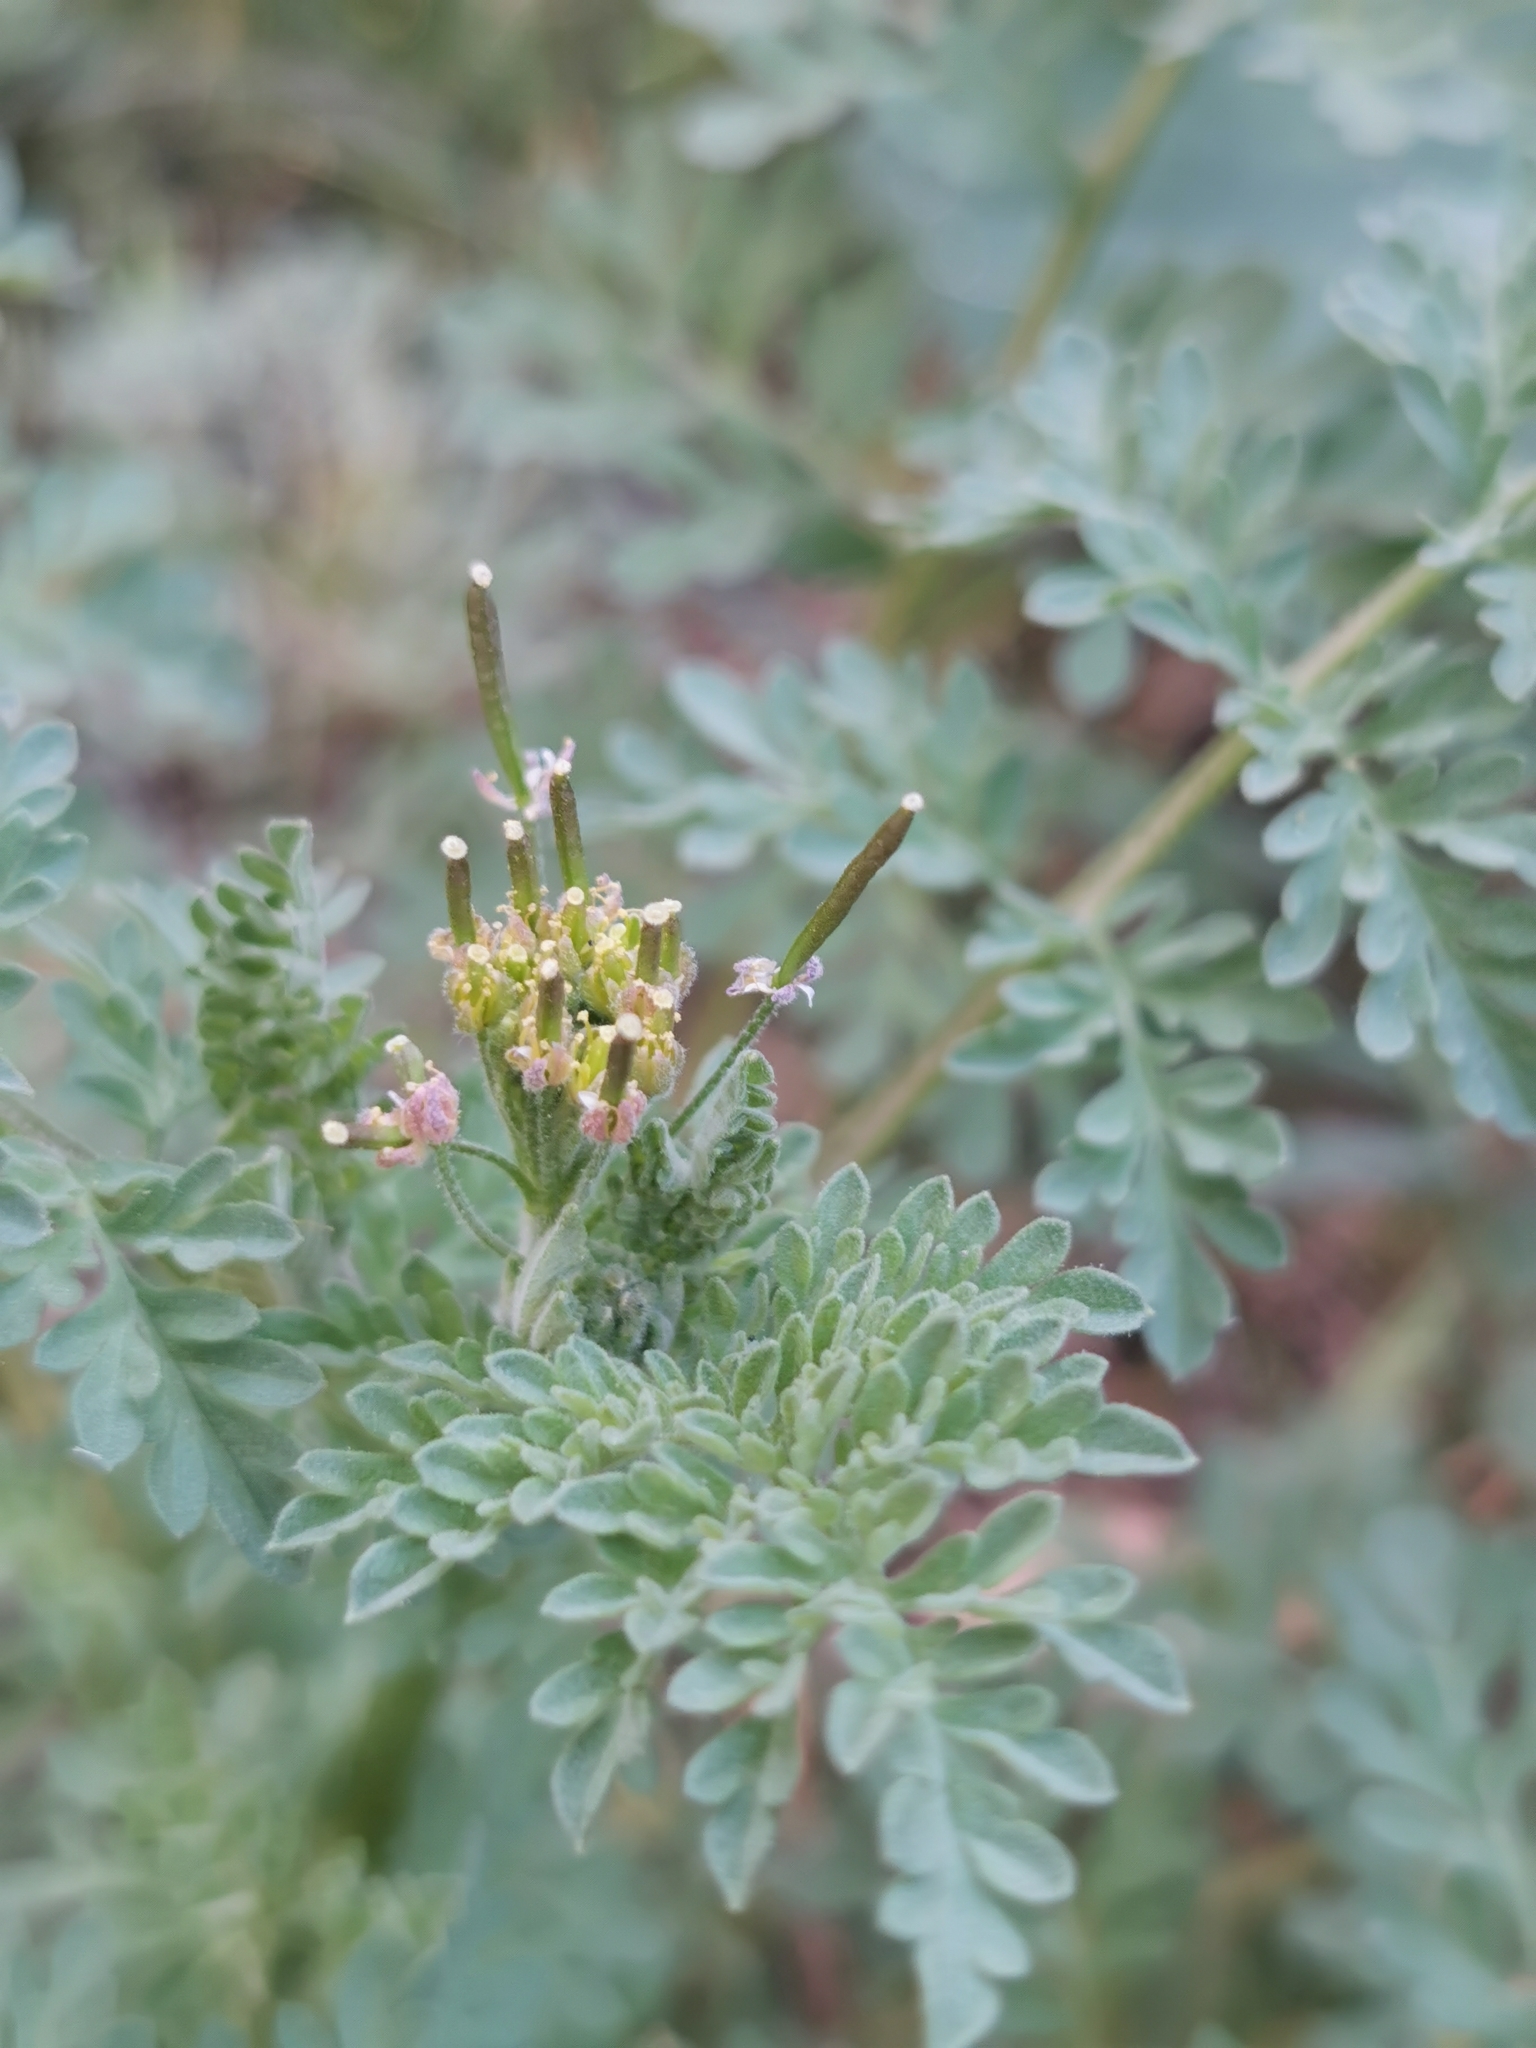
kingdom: Plantae
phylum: Tracheophyta
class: Magnoliopsida
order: Brassicales
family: Brassicaceae
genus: Descurainia
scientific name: Descurainia pinnata
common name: Western tansy mustard
